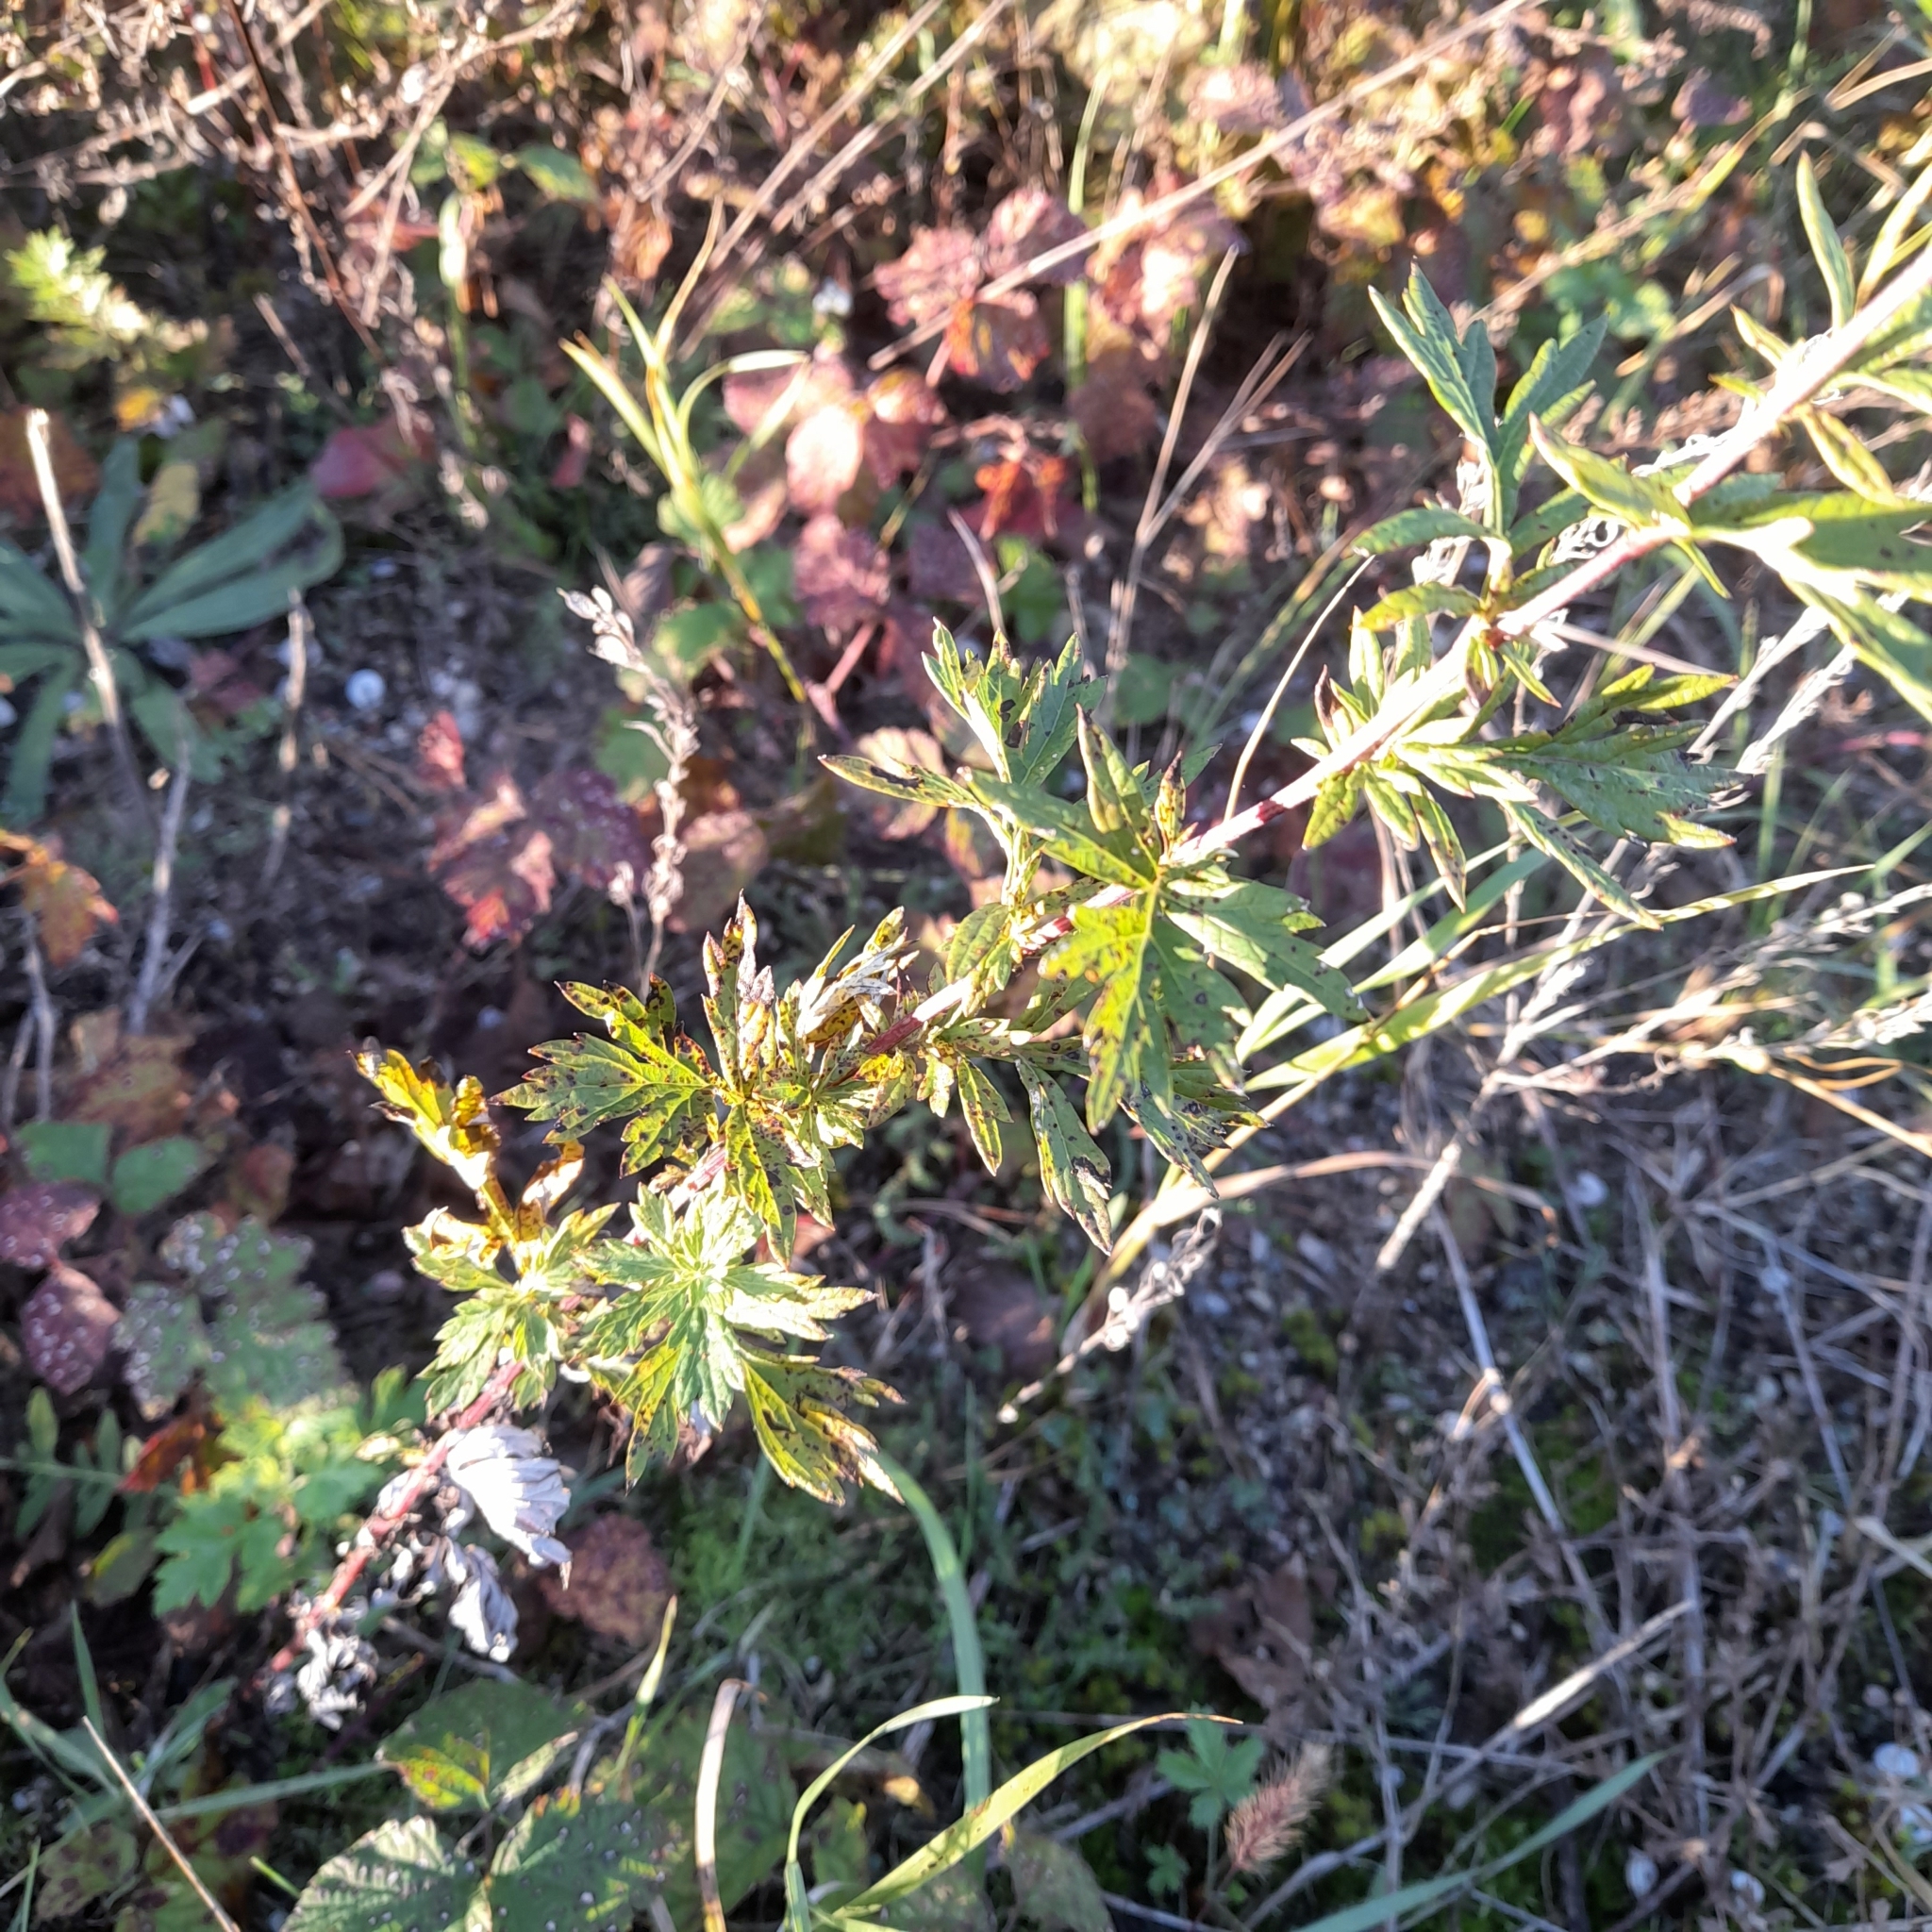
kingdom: Plantae
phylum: Tracheophyta
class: Magnoliopsida
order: Asterales
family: Asteraceae
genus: Artemisia
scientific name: Artemisia vulgaris
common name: Mugwort
